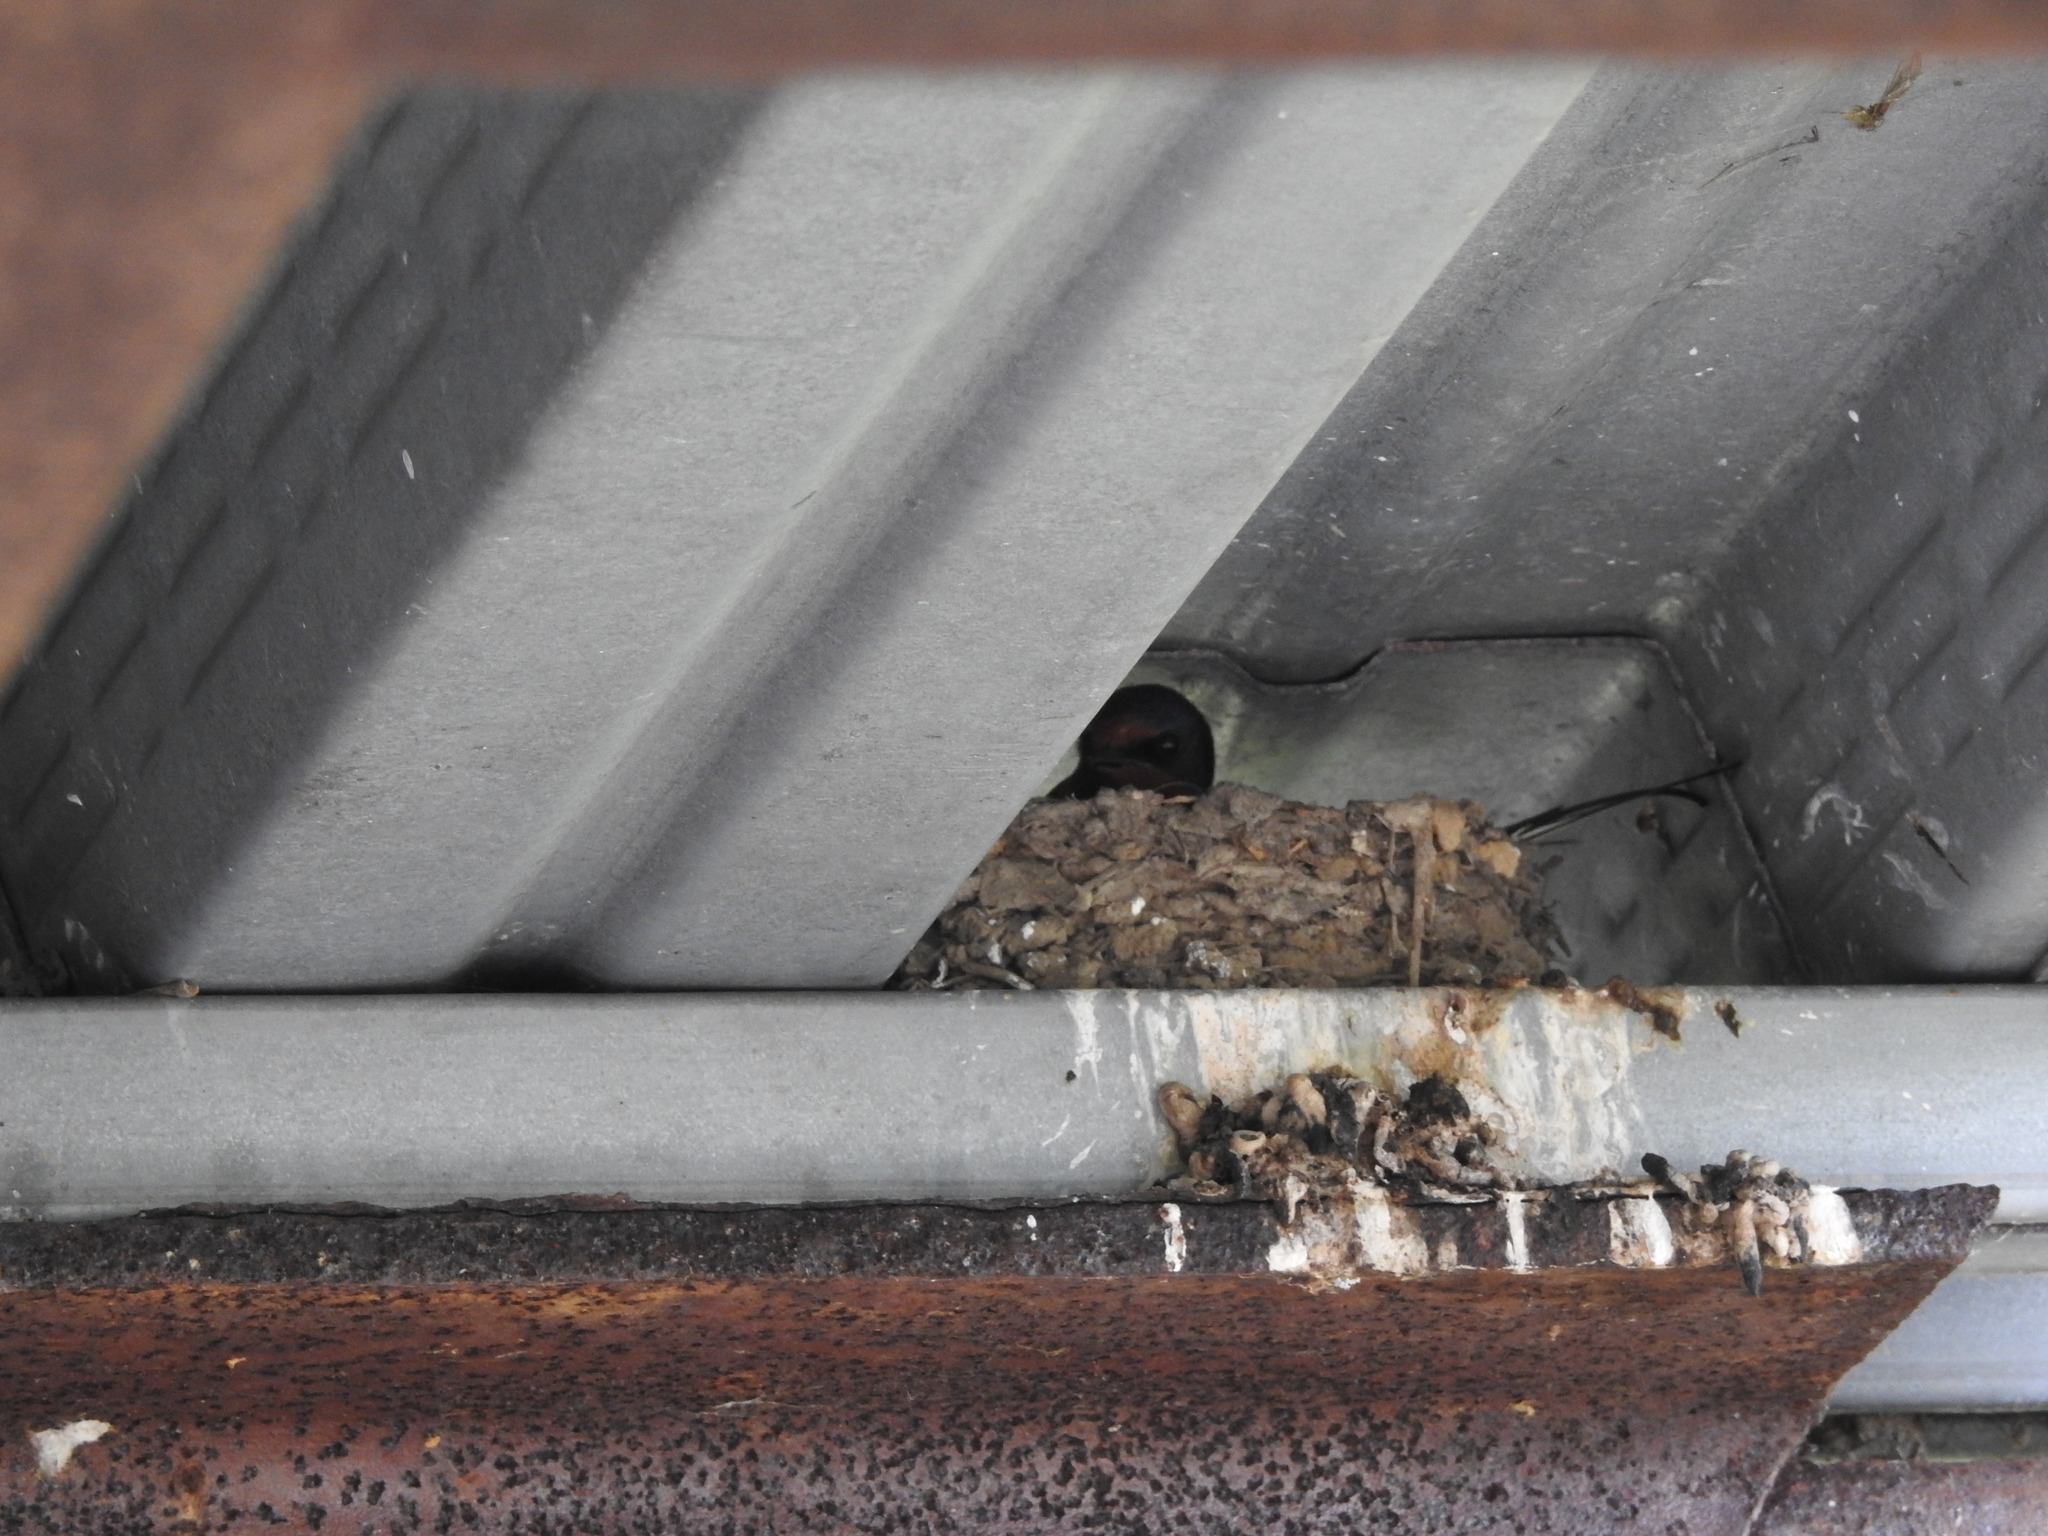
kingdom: Animalia
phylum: Chordata
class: Aves
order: Passeriformes
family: Hirundinidae
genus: Hirundo
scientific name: Hirundo rustica
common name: Barn swallow
